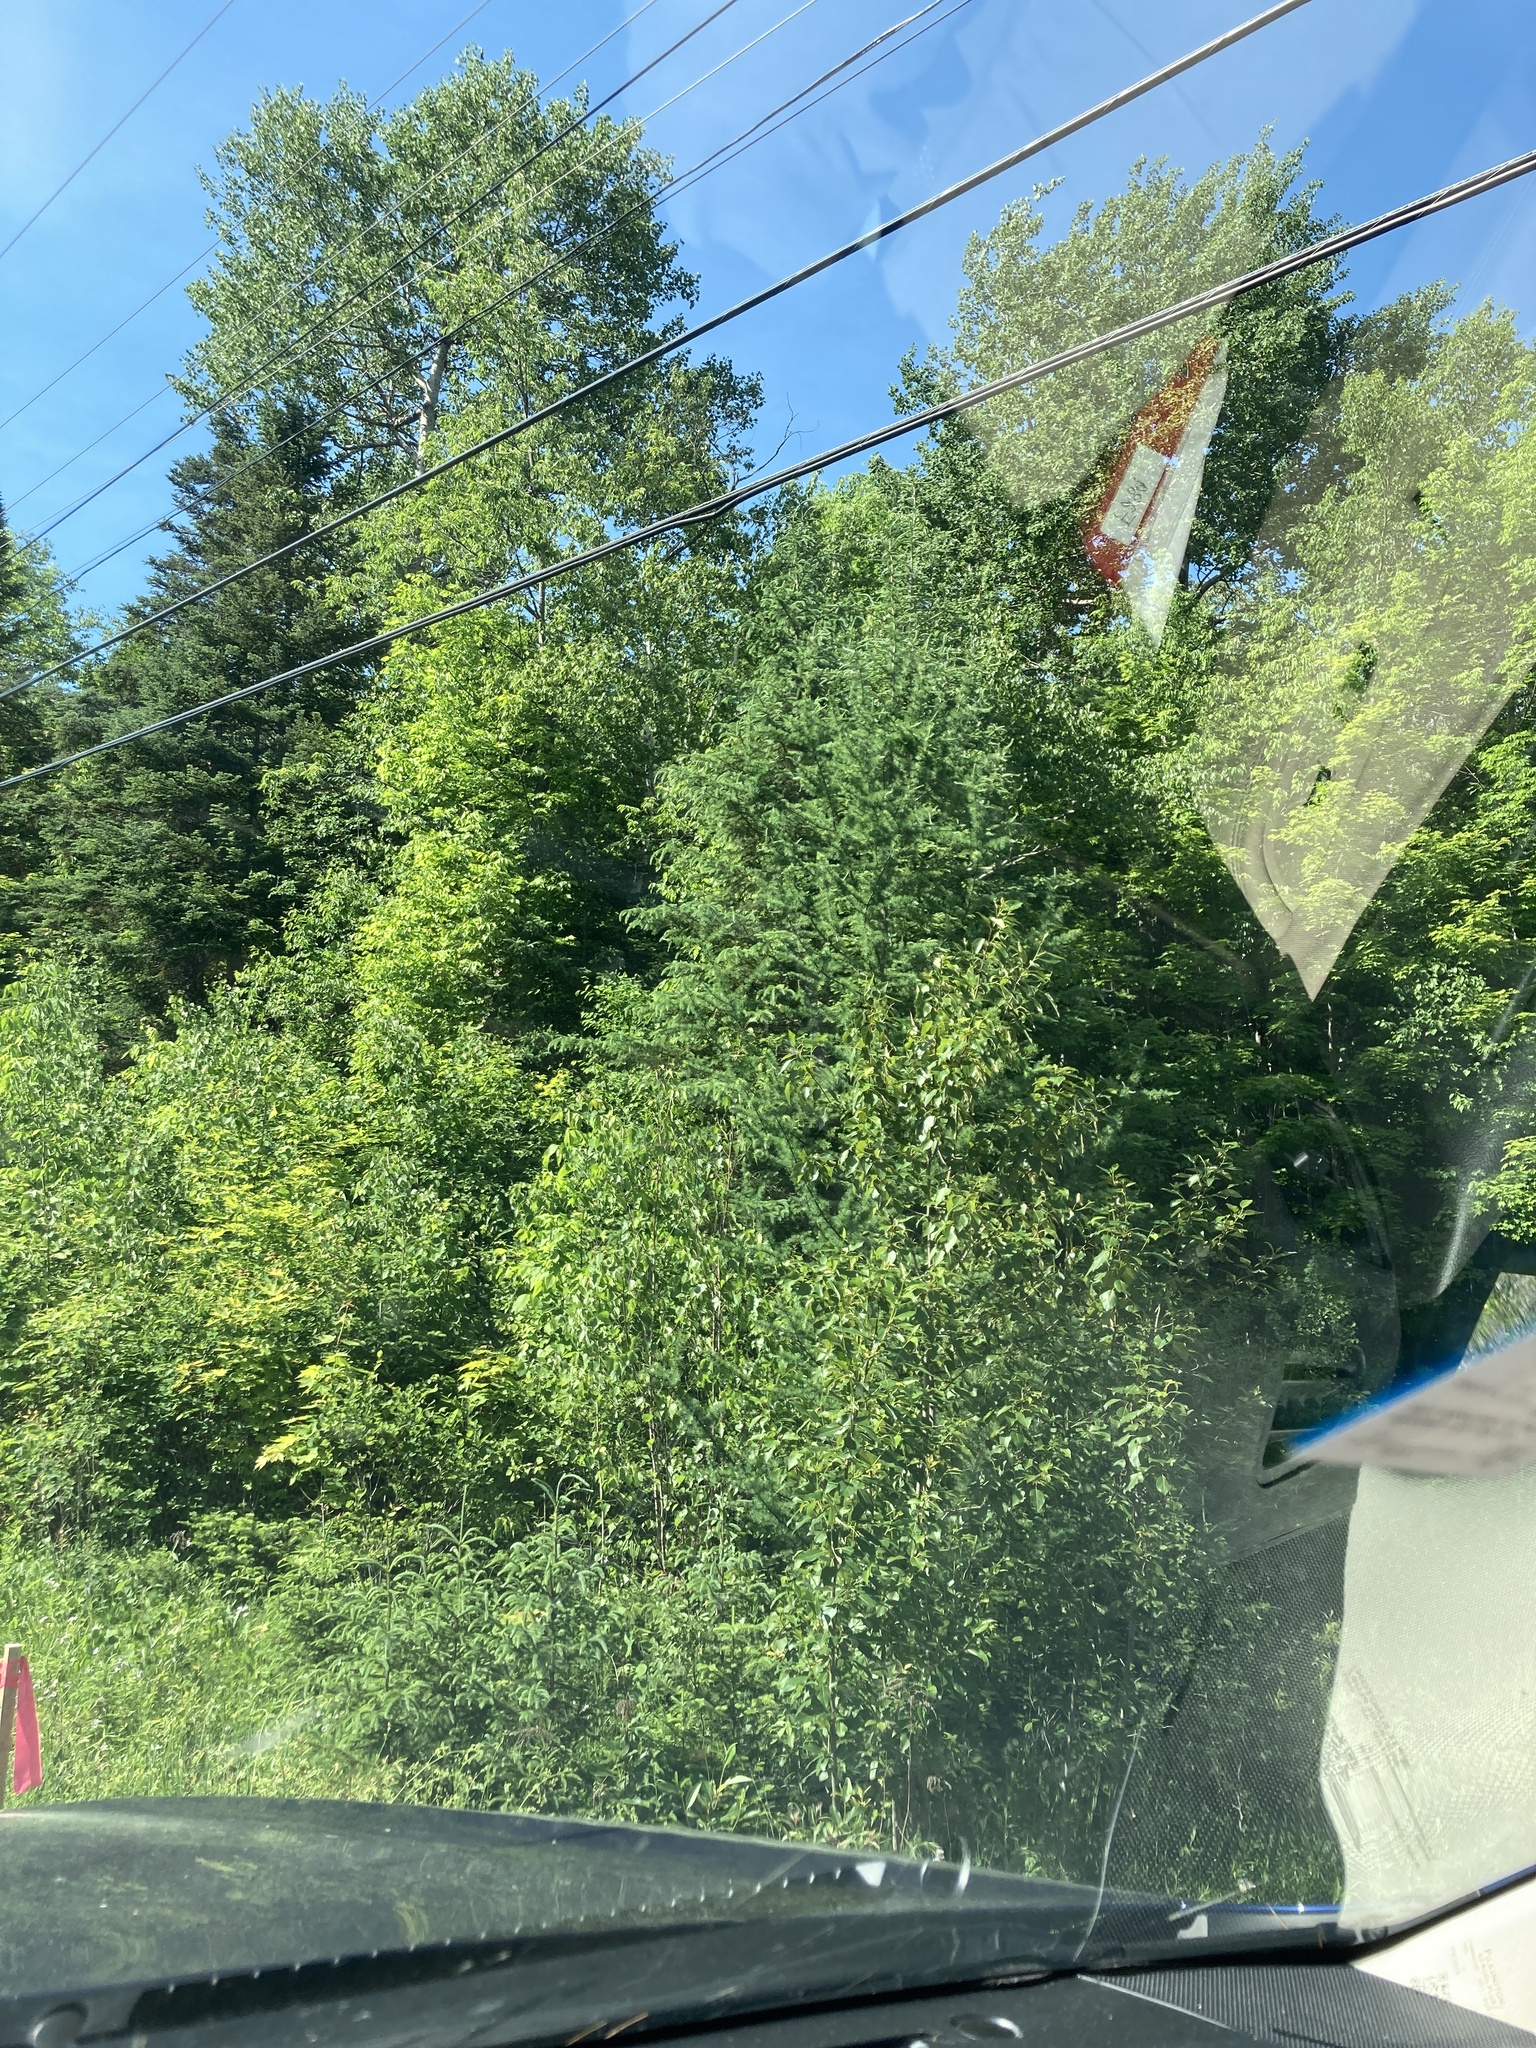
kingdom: Plantae
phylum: Tracheophyta
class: Pinopsida
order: Pinales
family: Pinaceae
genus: Larix
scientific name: Larix laricina
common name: American larch
